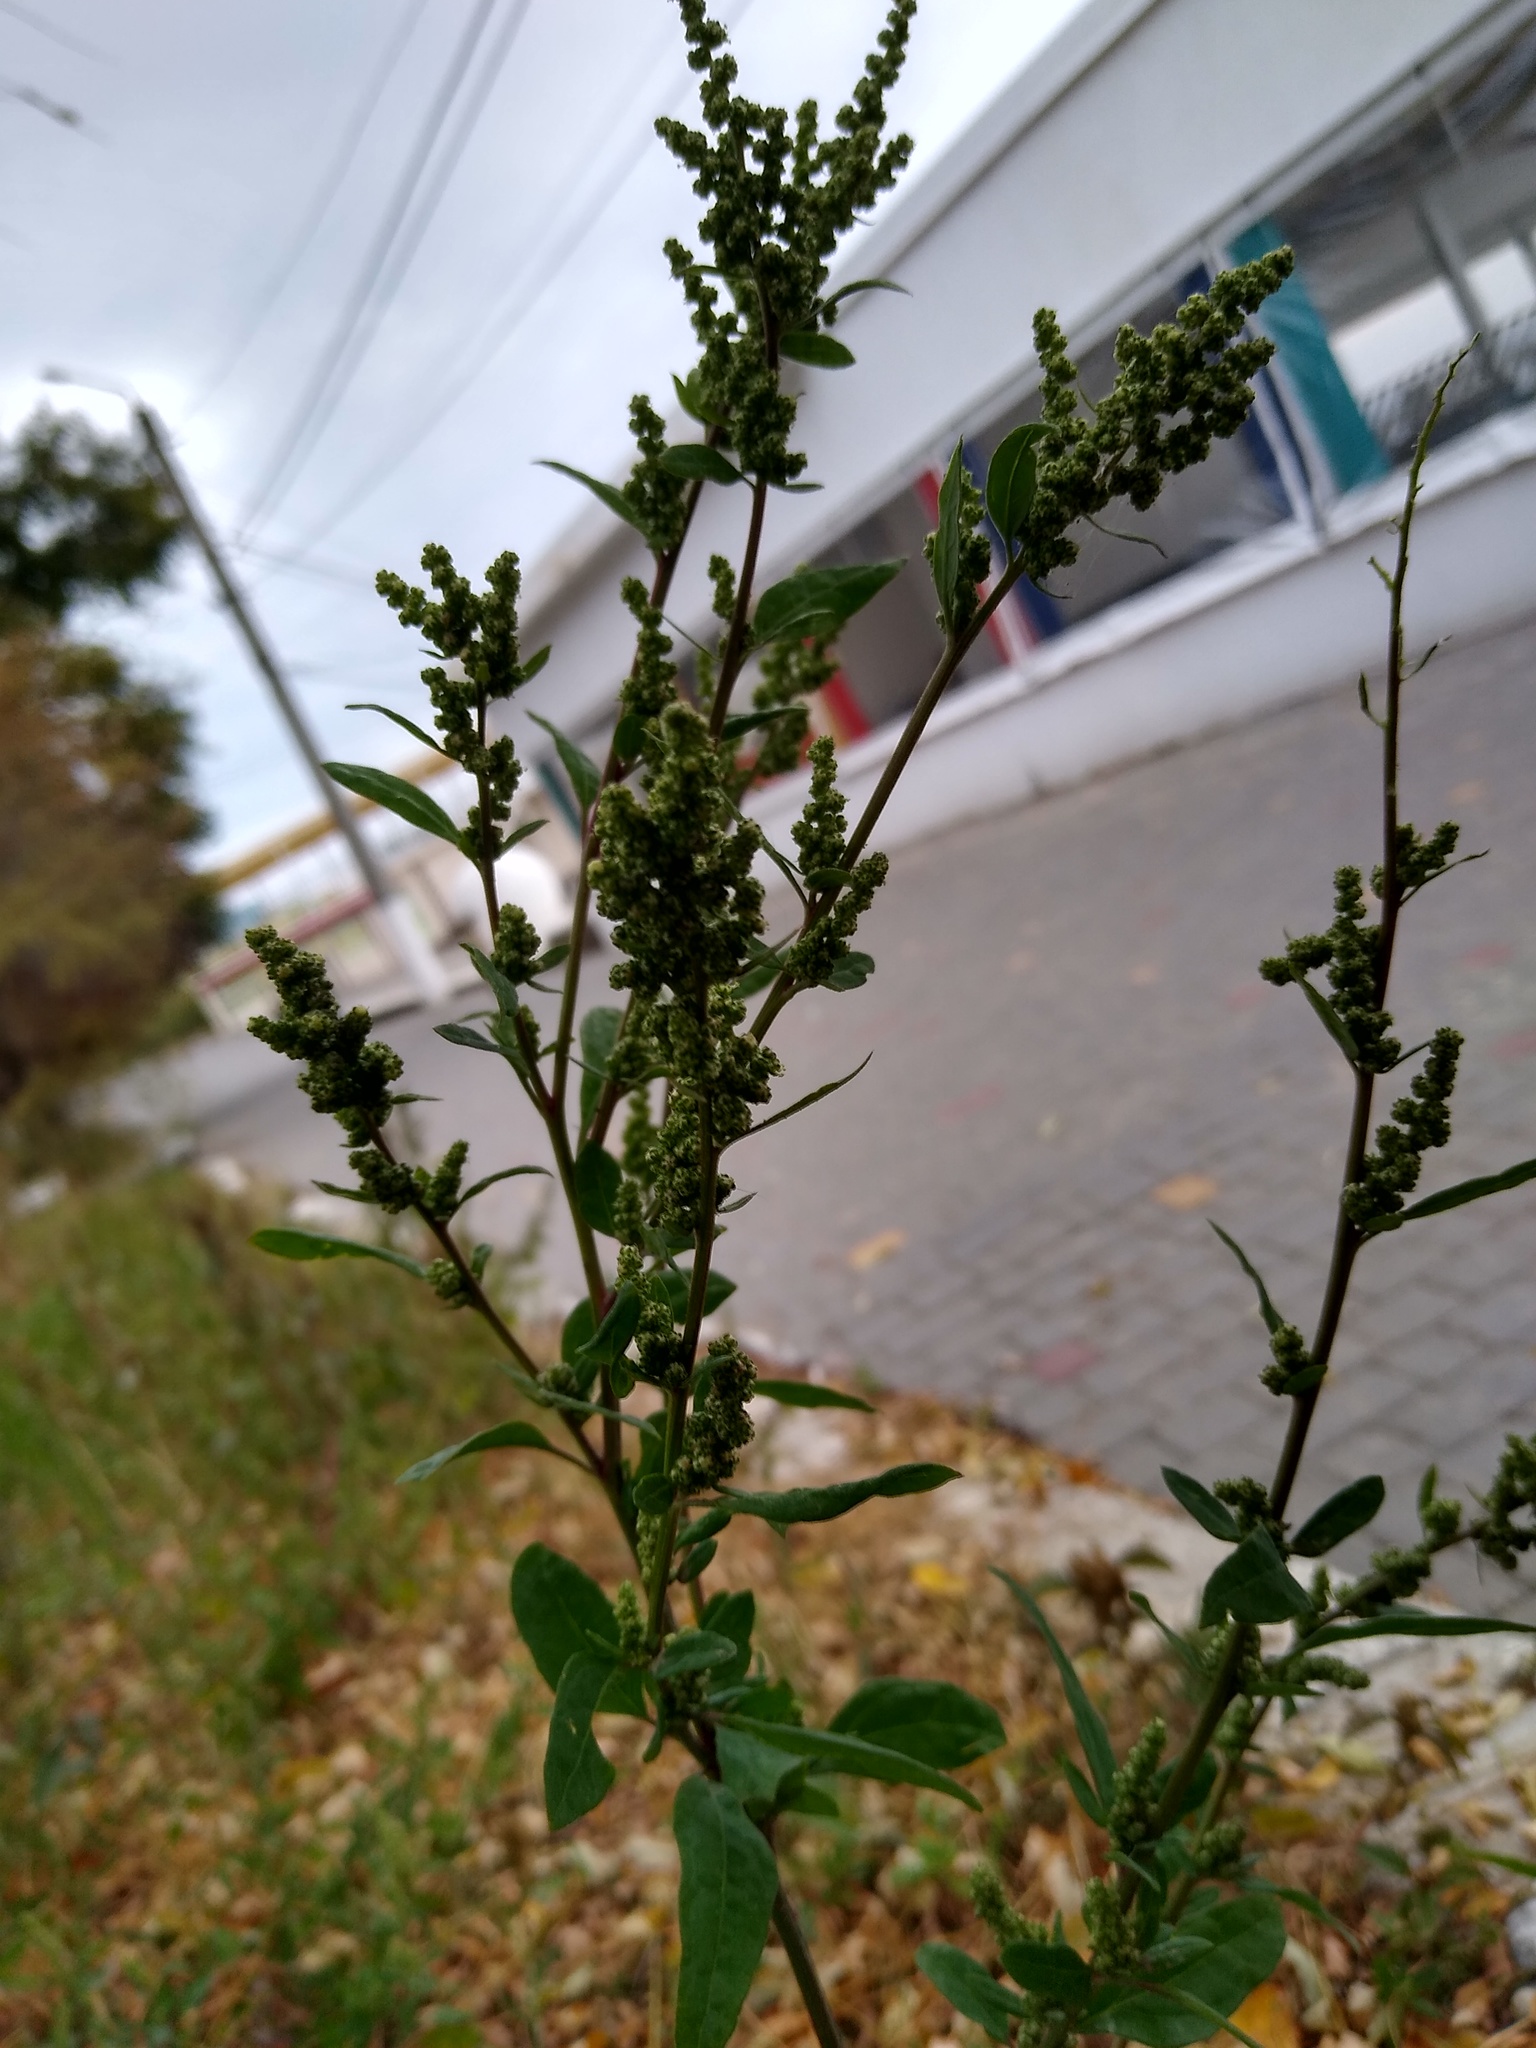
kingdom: Plantae
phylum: Tracheophyta
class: Magnoliopsida
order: Caryophyllales
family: Amaranthaceae
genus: Chenopodium
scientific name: Chenopodium betaceum
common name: Striped goosefoot
